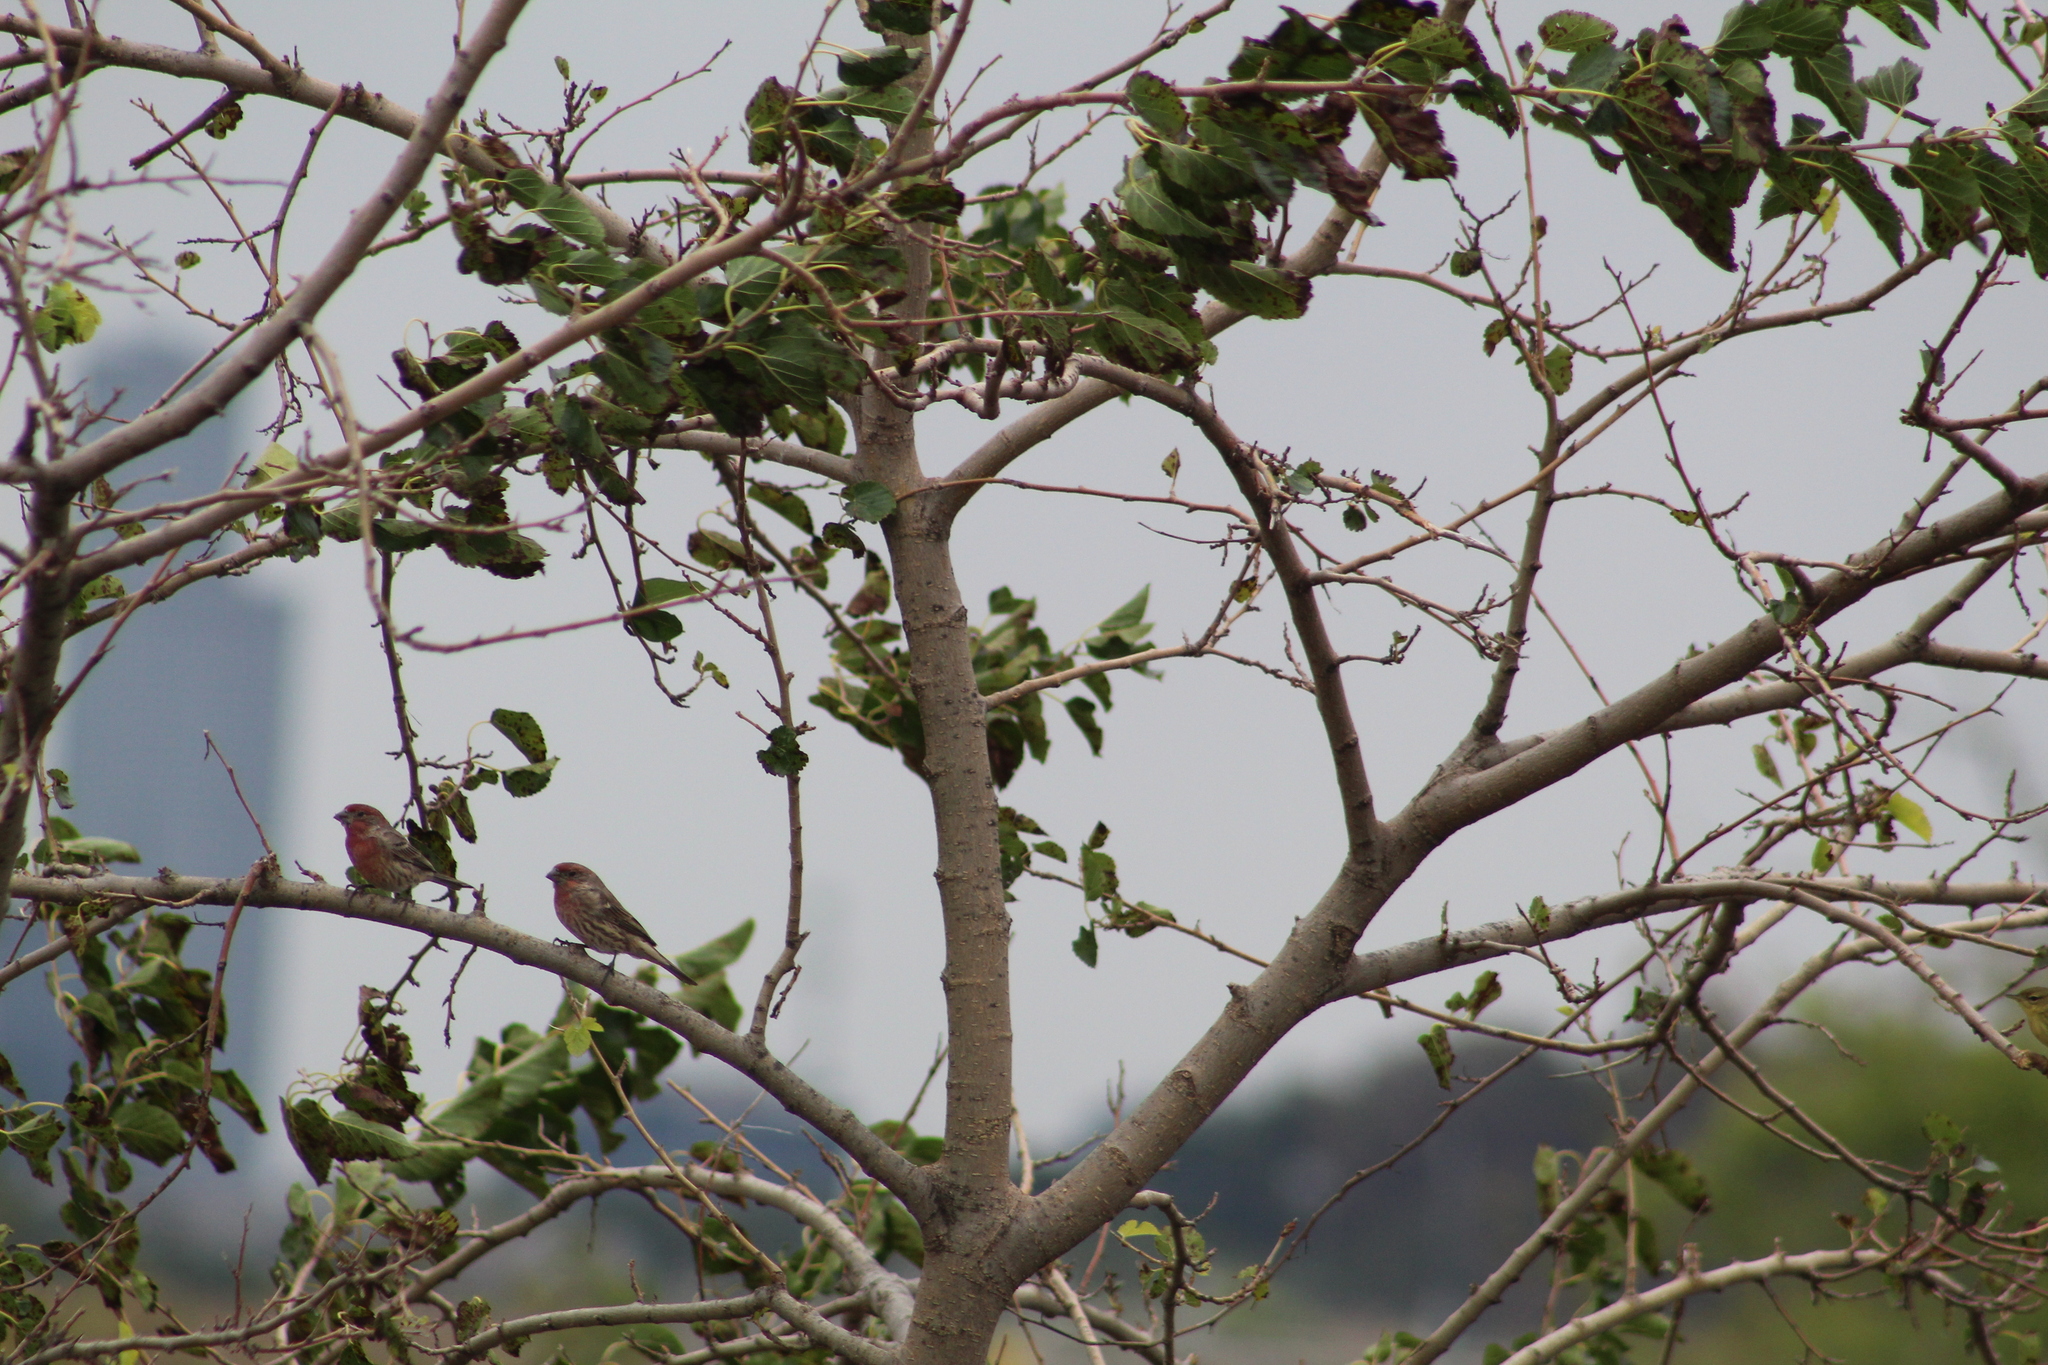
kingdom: Animalia
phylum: Chordata
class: Aves
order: Passeriformes
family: Fringillidae
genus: Haemorhous
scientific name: Haemorhous mexicanus
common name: House finch
